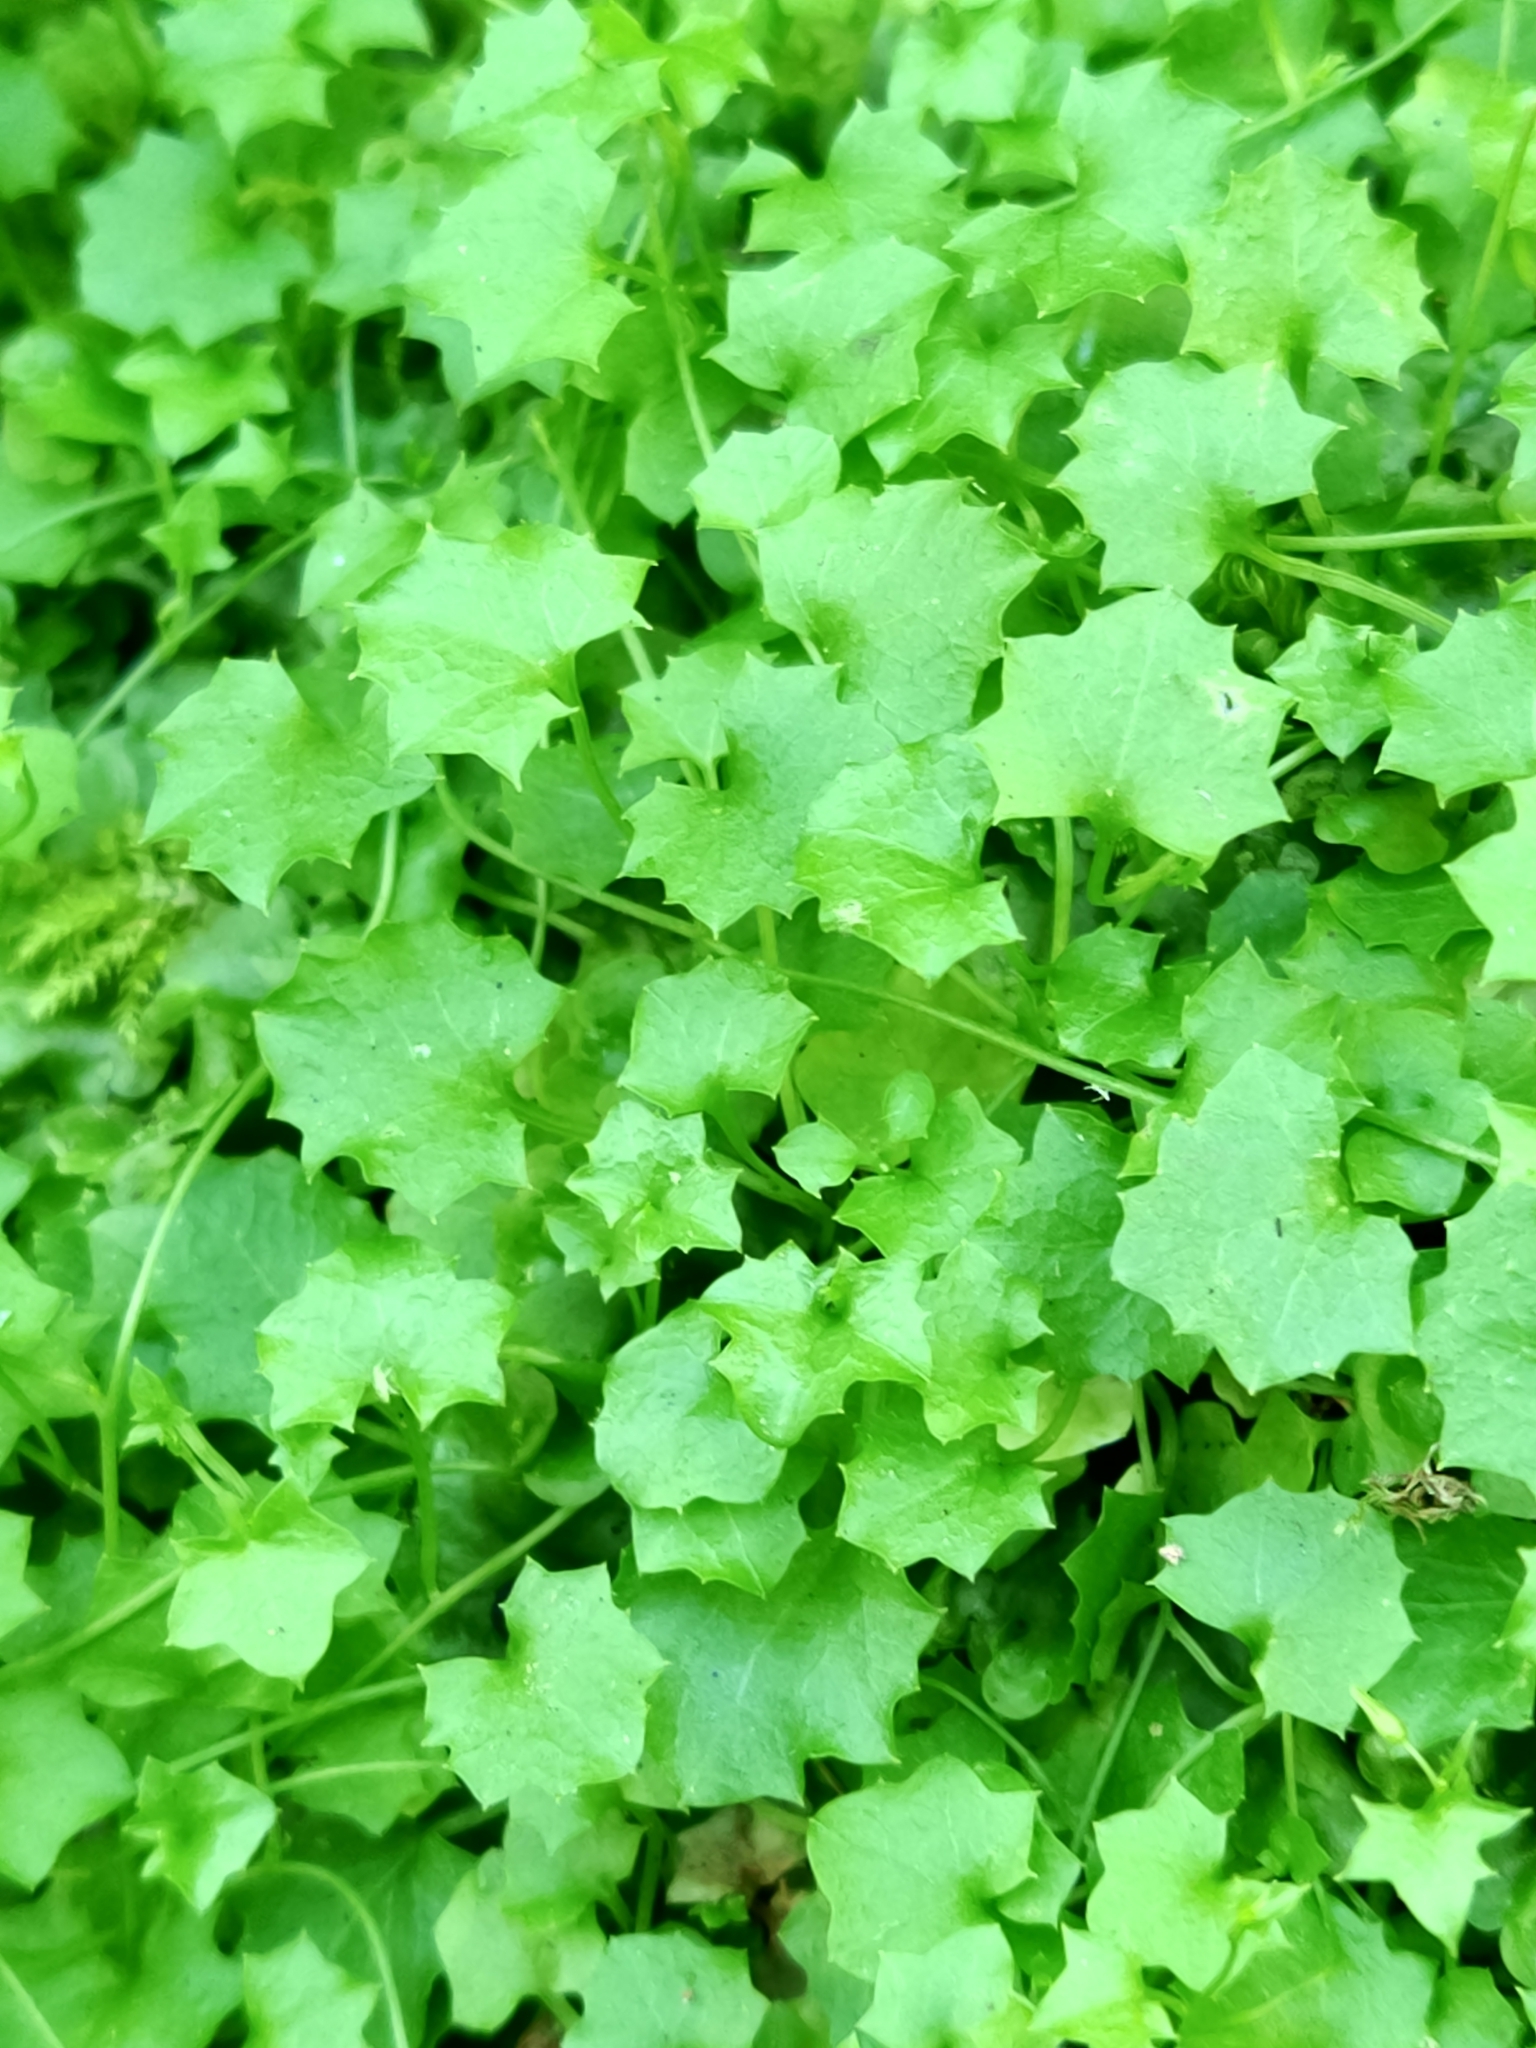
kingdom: Plantae
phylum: Tracheophyta
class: Magnoliopsida
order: Asterales
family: Campanulaceae
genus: Hesperocodon
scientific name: Hesperocodon hederaceus
